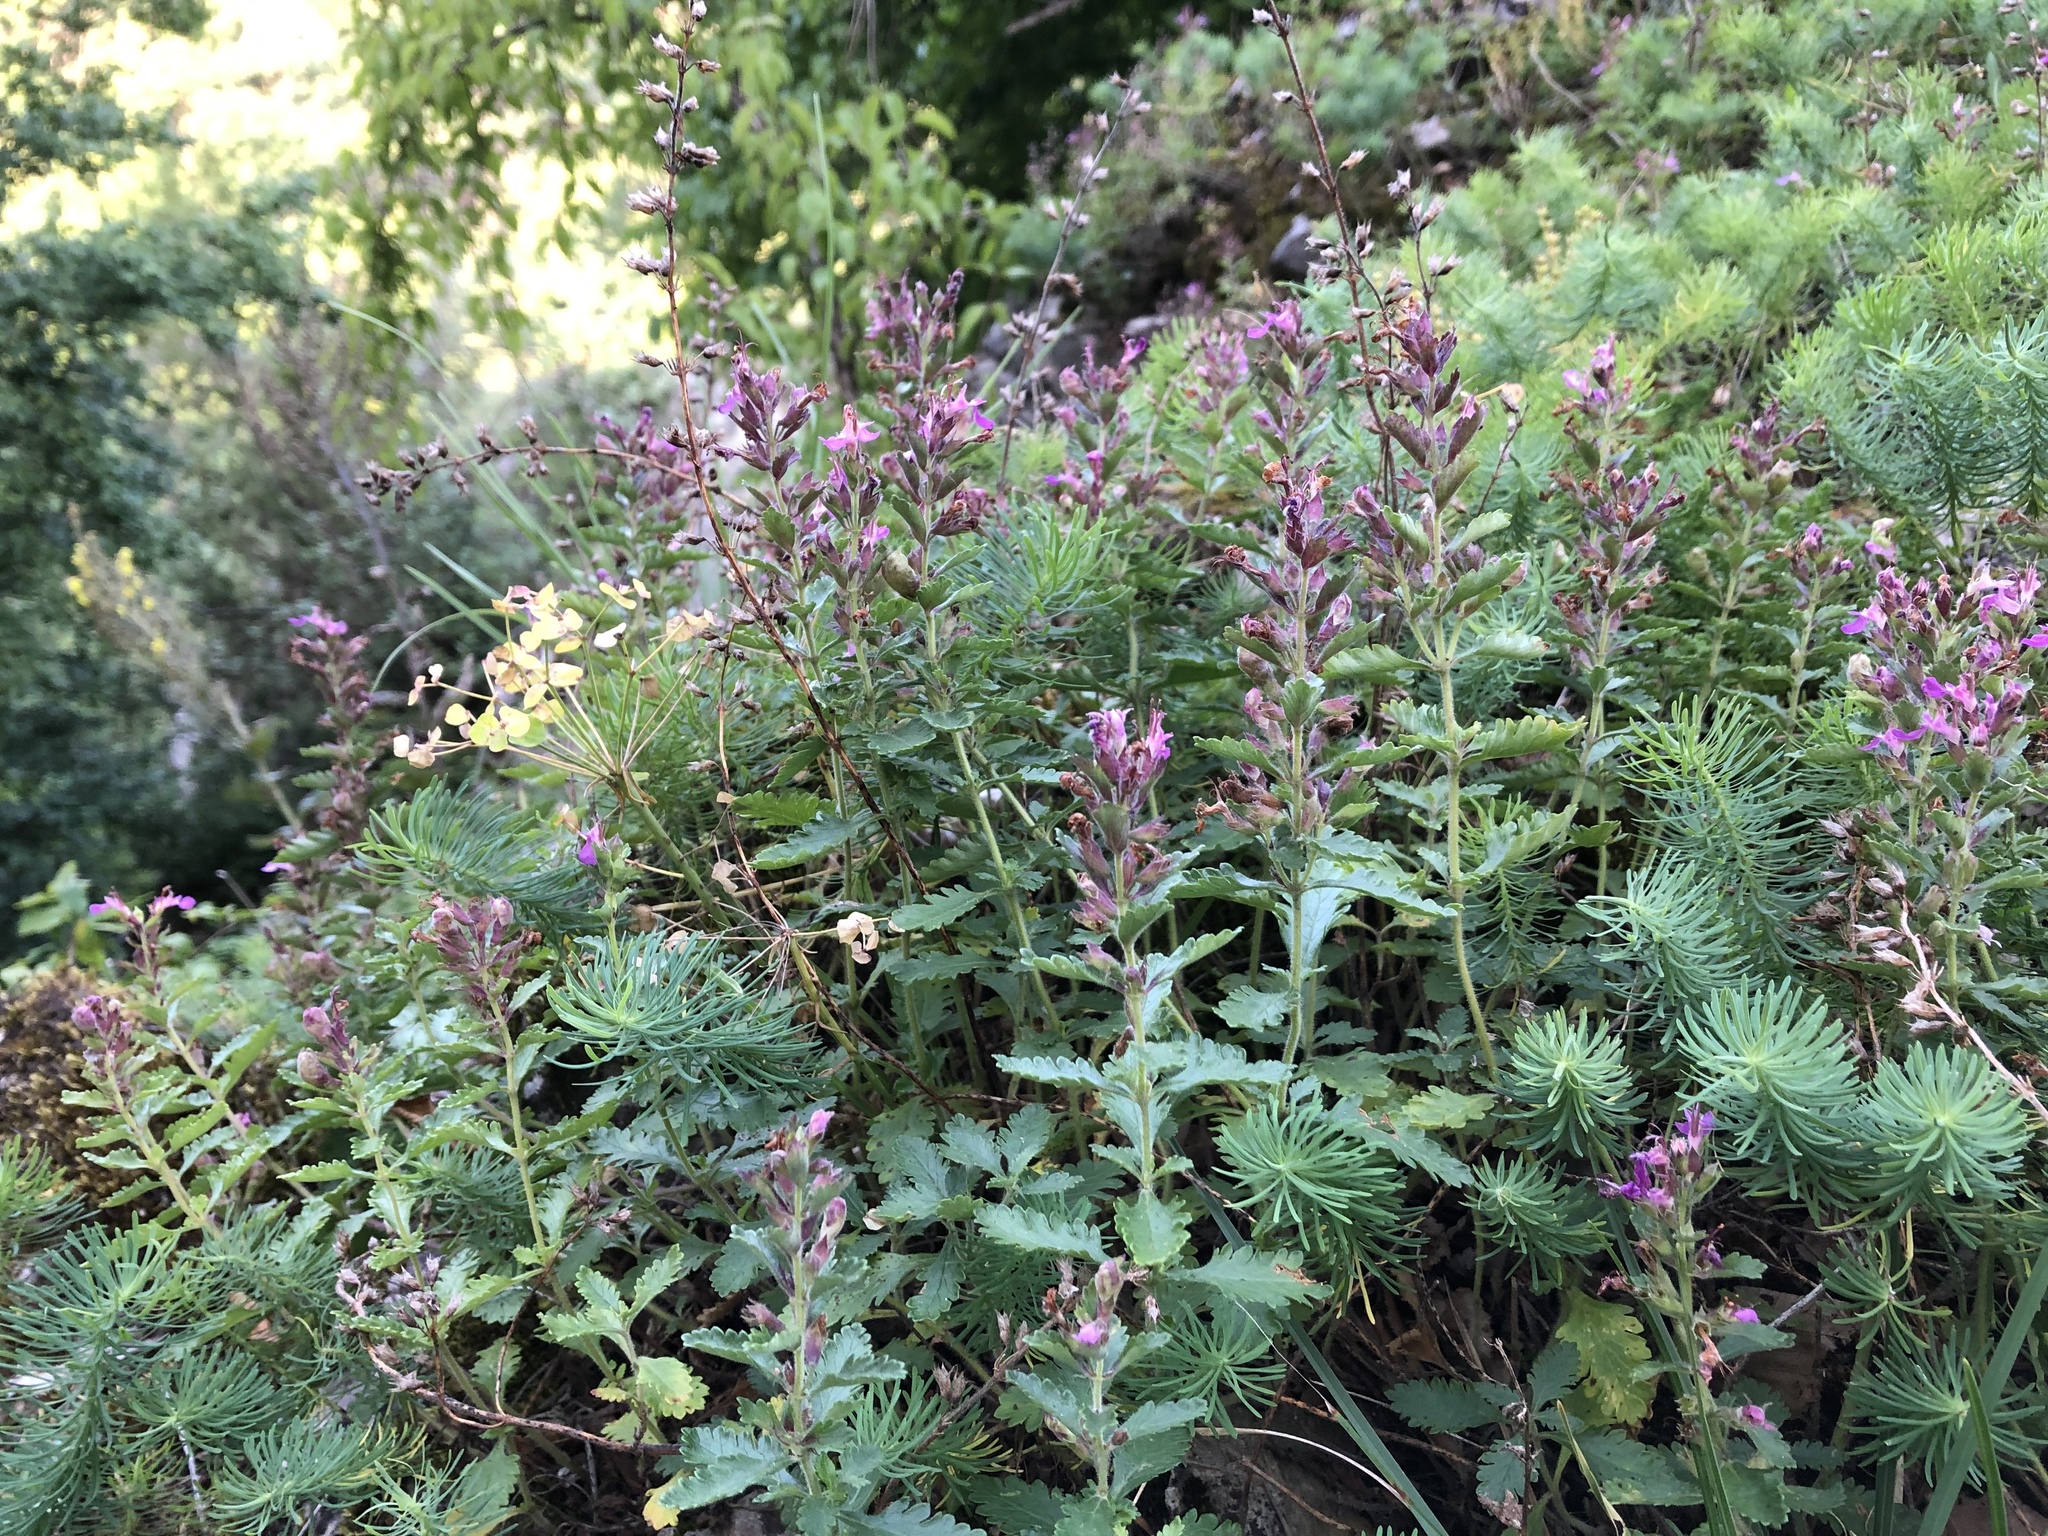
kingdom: Plantae
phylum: Tracheophyta
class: Magnoliopsida
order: Lamiales
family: Lamiaceae
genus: Teucrium
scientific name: Teucrium chamaedrys
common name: Wall germander
